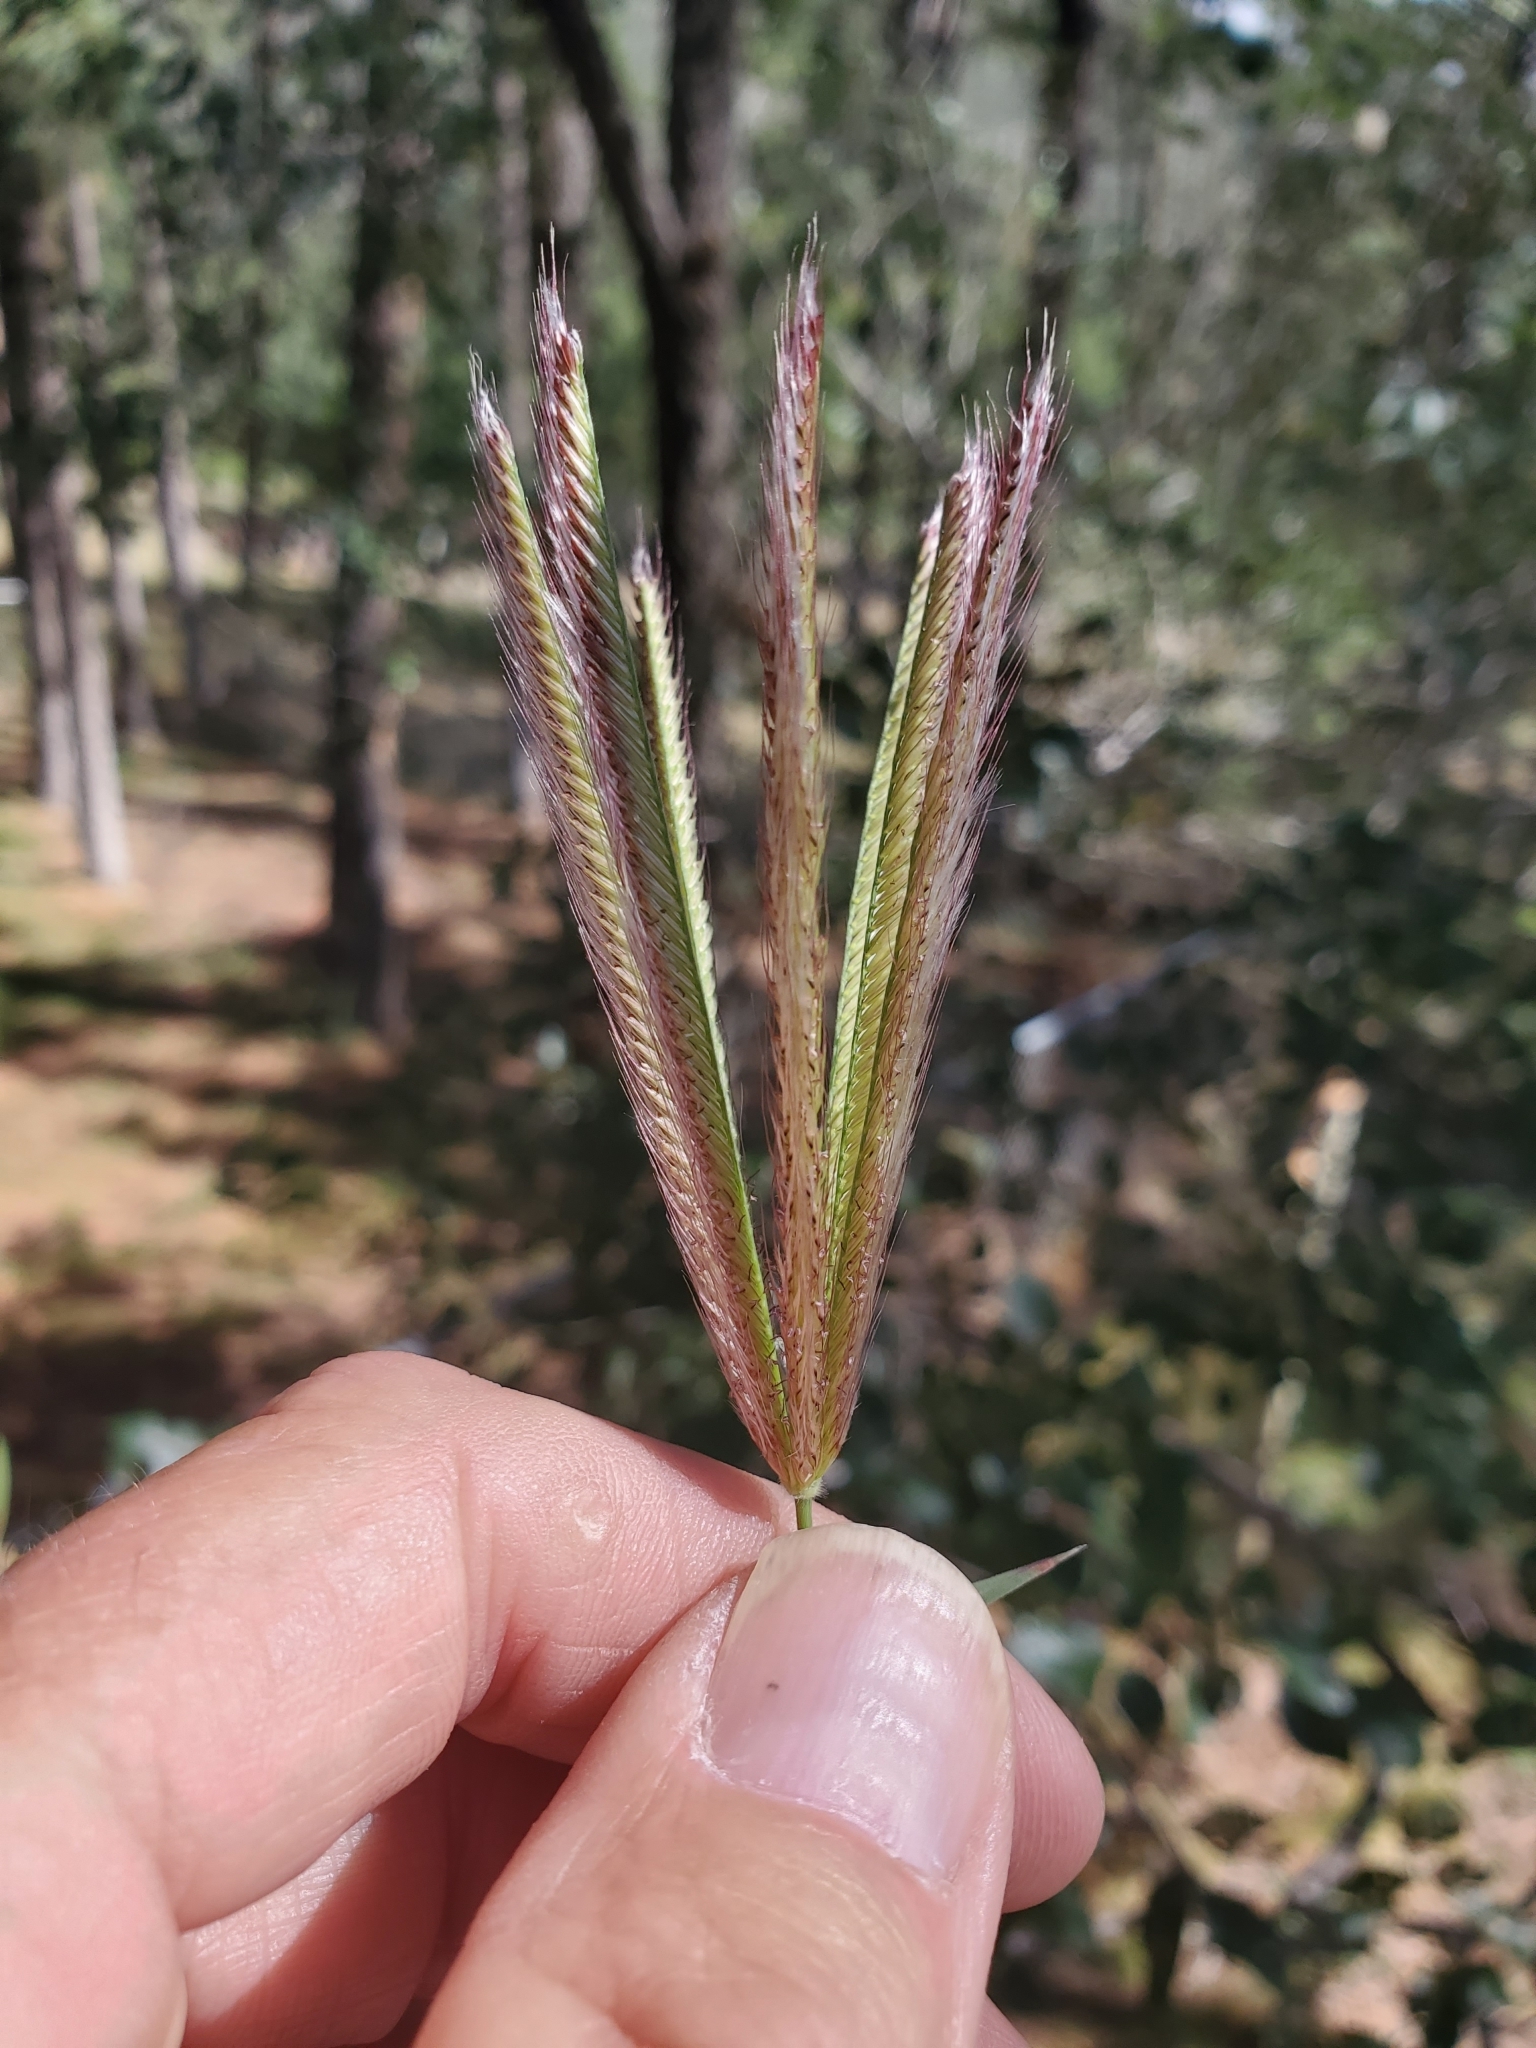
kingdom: Plantae
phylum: Tracheophyta
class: Liliopsida
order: Poales
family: Poaceae
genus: Chloris
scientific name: Chloris virgata
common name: Feathery rhodes-grass
